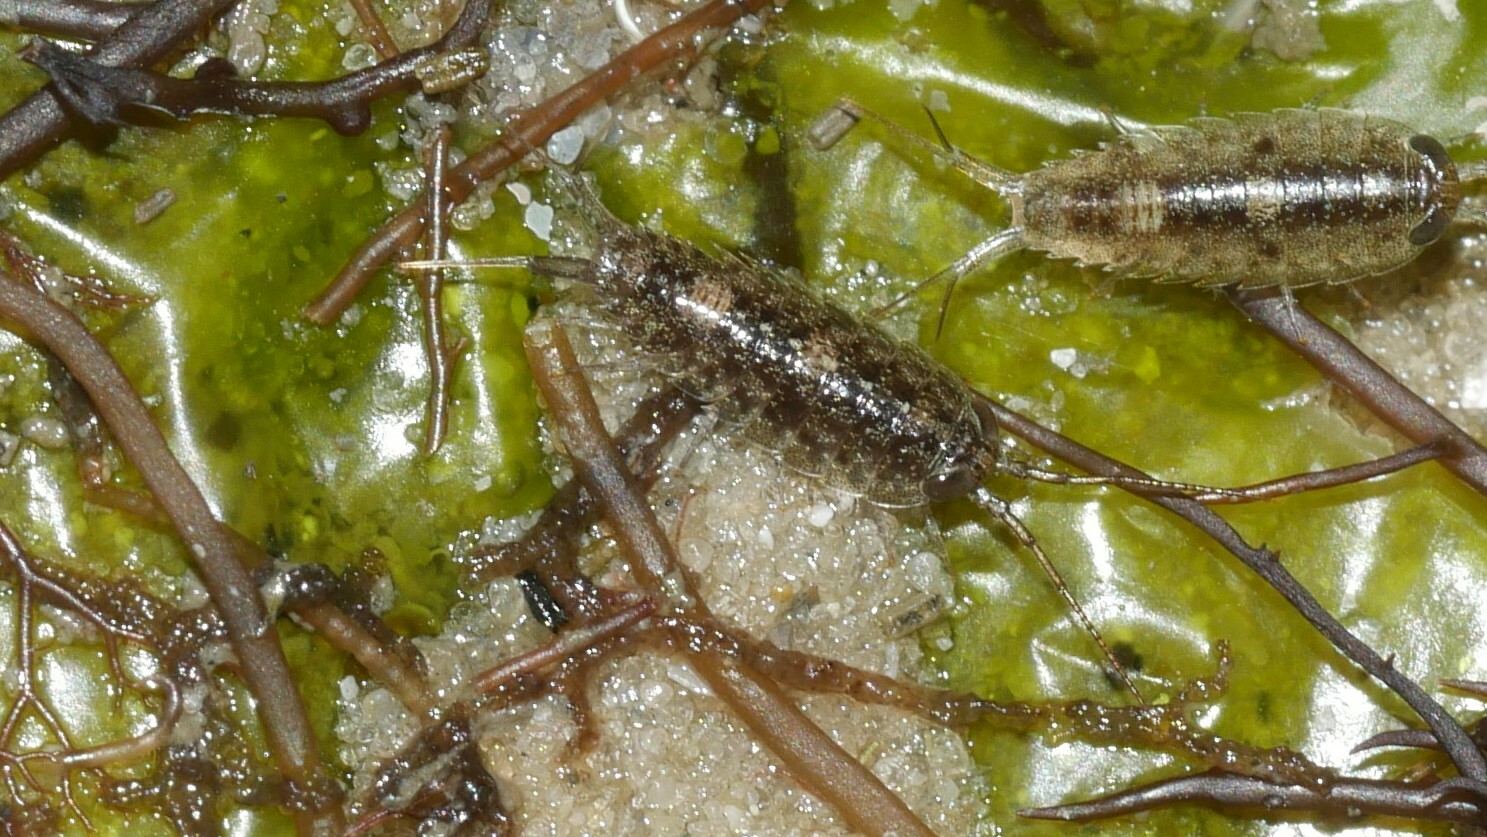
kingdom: Animalia
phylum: Arthropoda
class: Malacostraca
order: Isopoda
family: Ligiidae
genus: Ligia
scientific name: Ligia exotica
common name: Wharf roach
